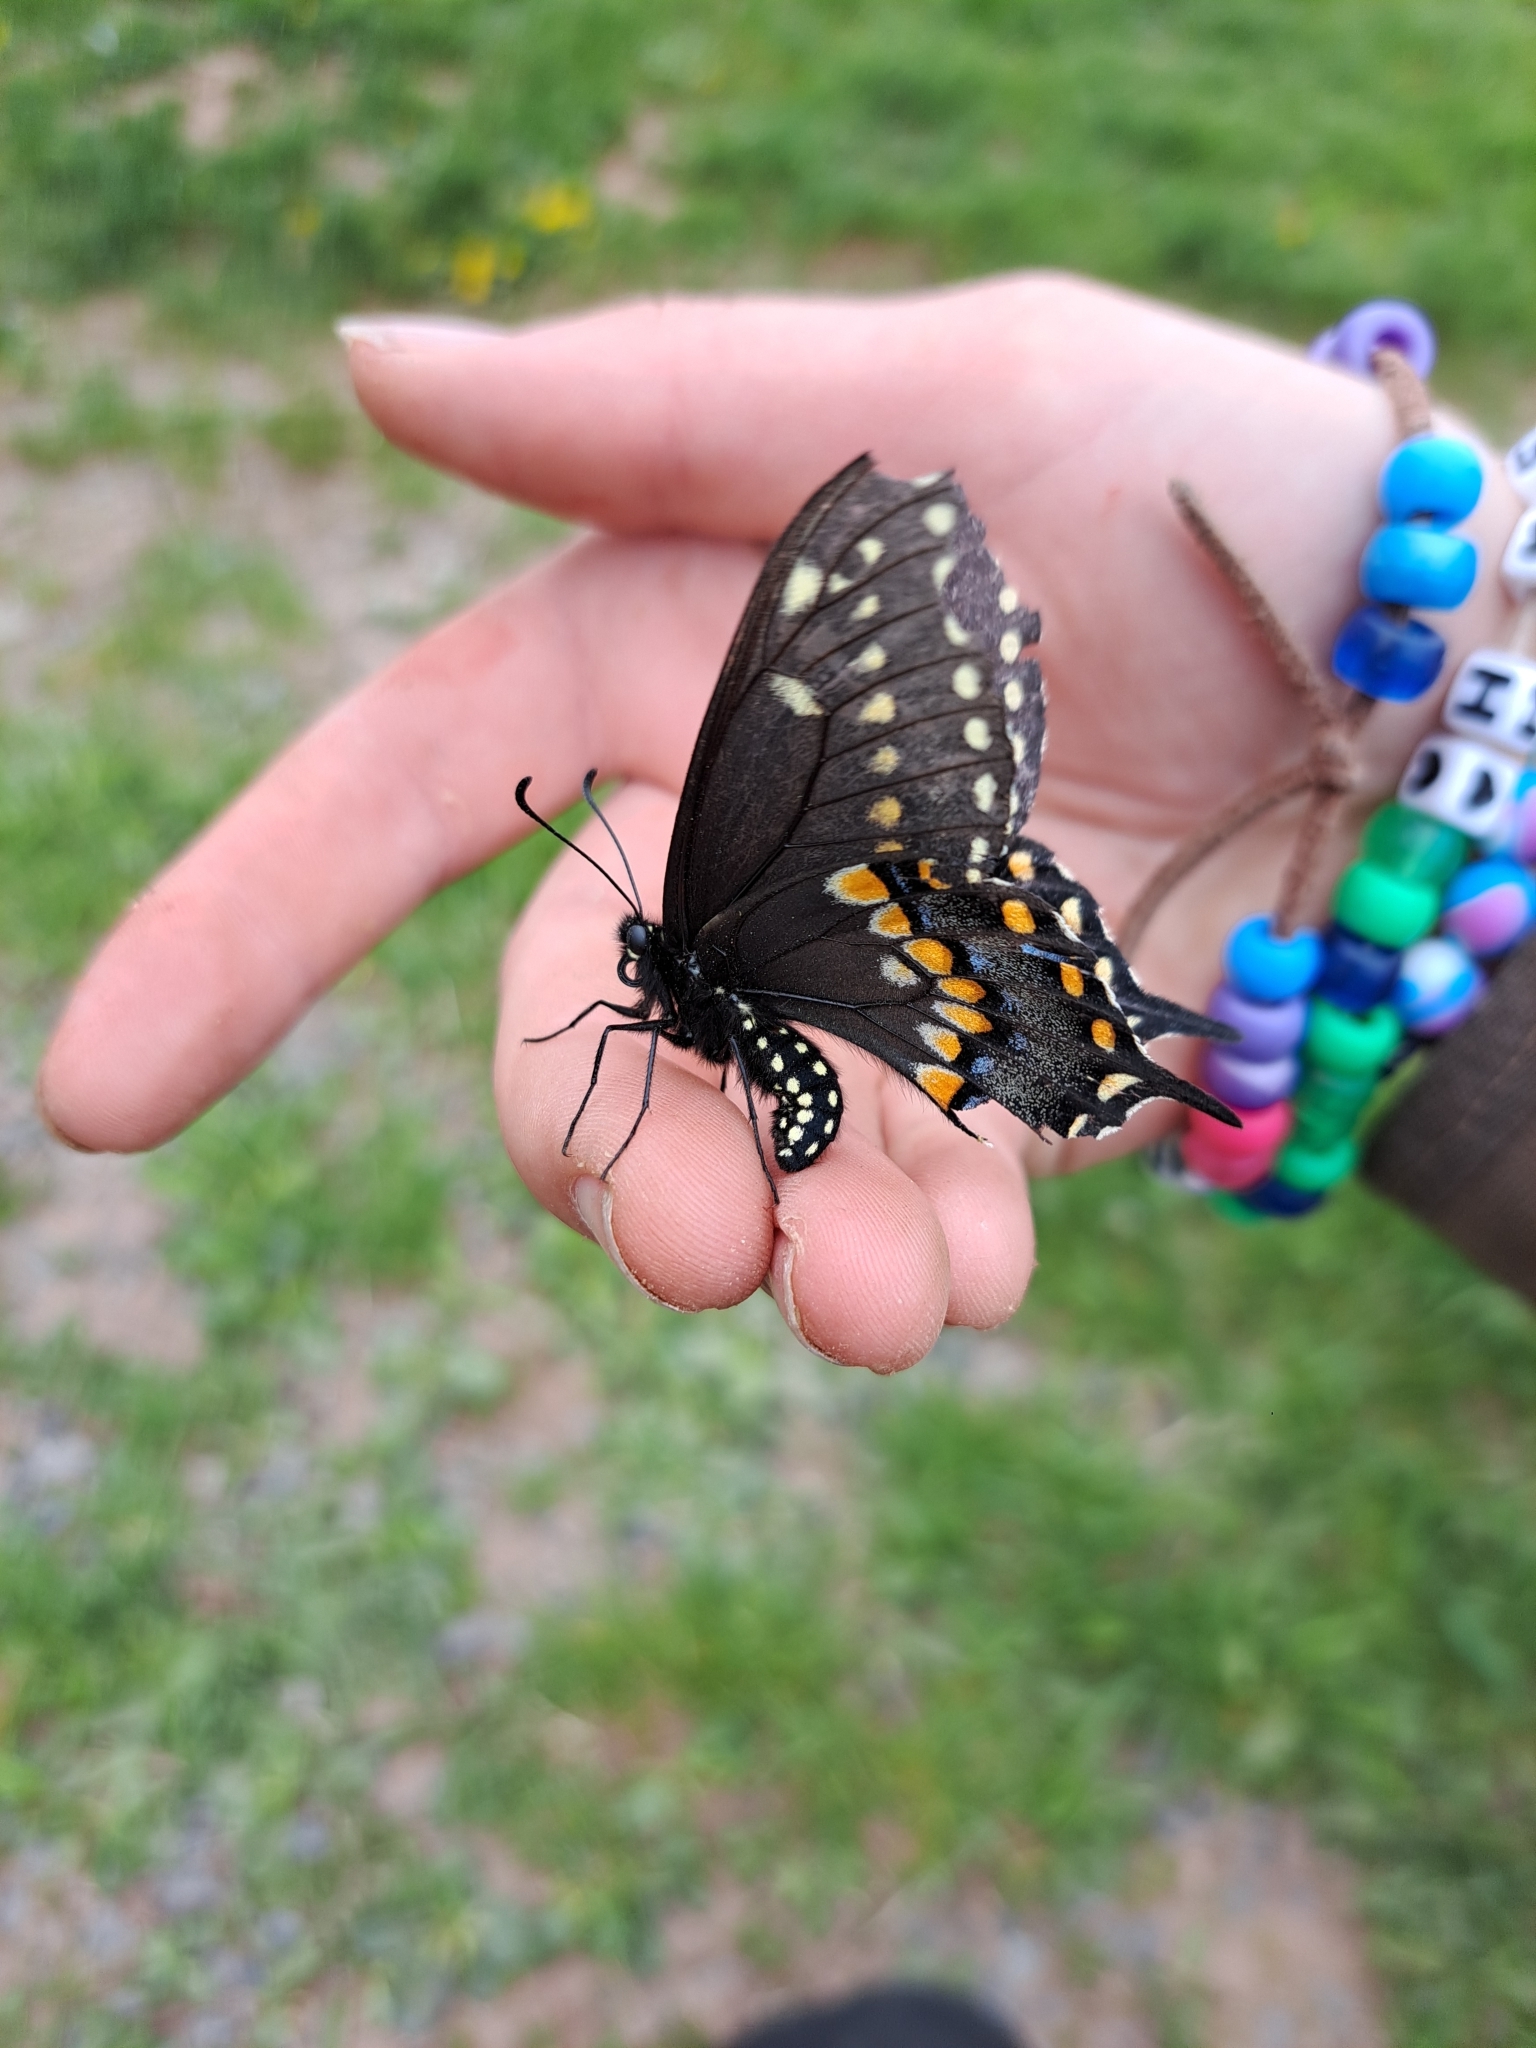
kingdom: Animalia
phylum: Arthropoda
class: Insecta
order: Lepidoptera
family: Papilionidae
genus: Papilio
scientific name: Papilio polyxenes
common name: Black swallowtail
